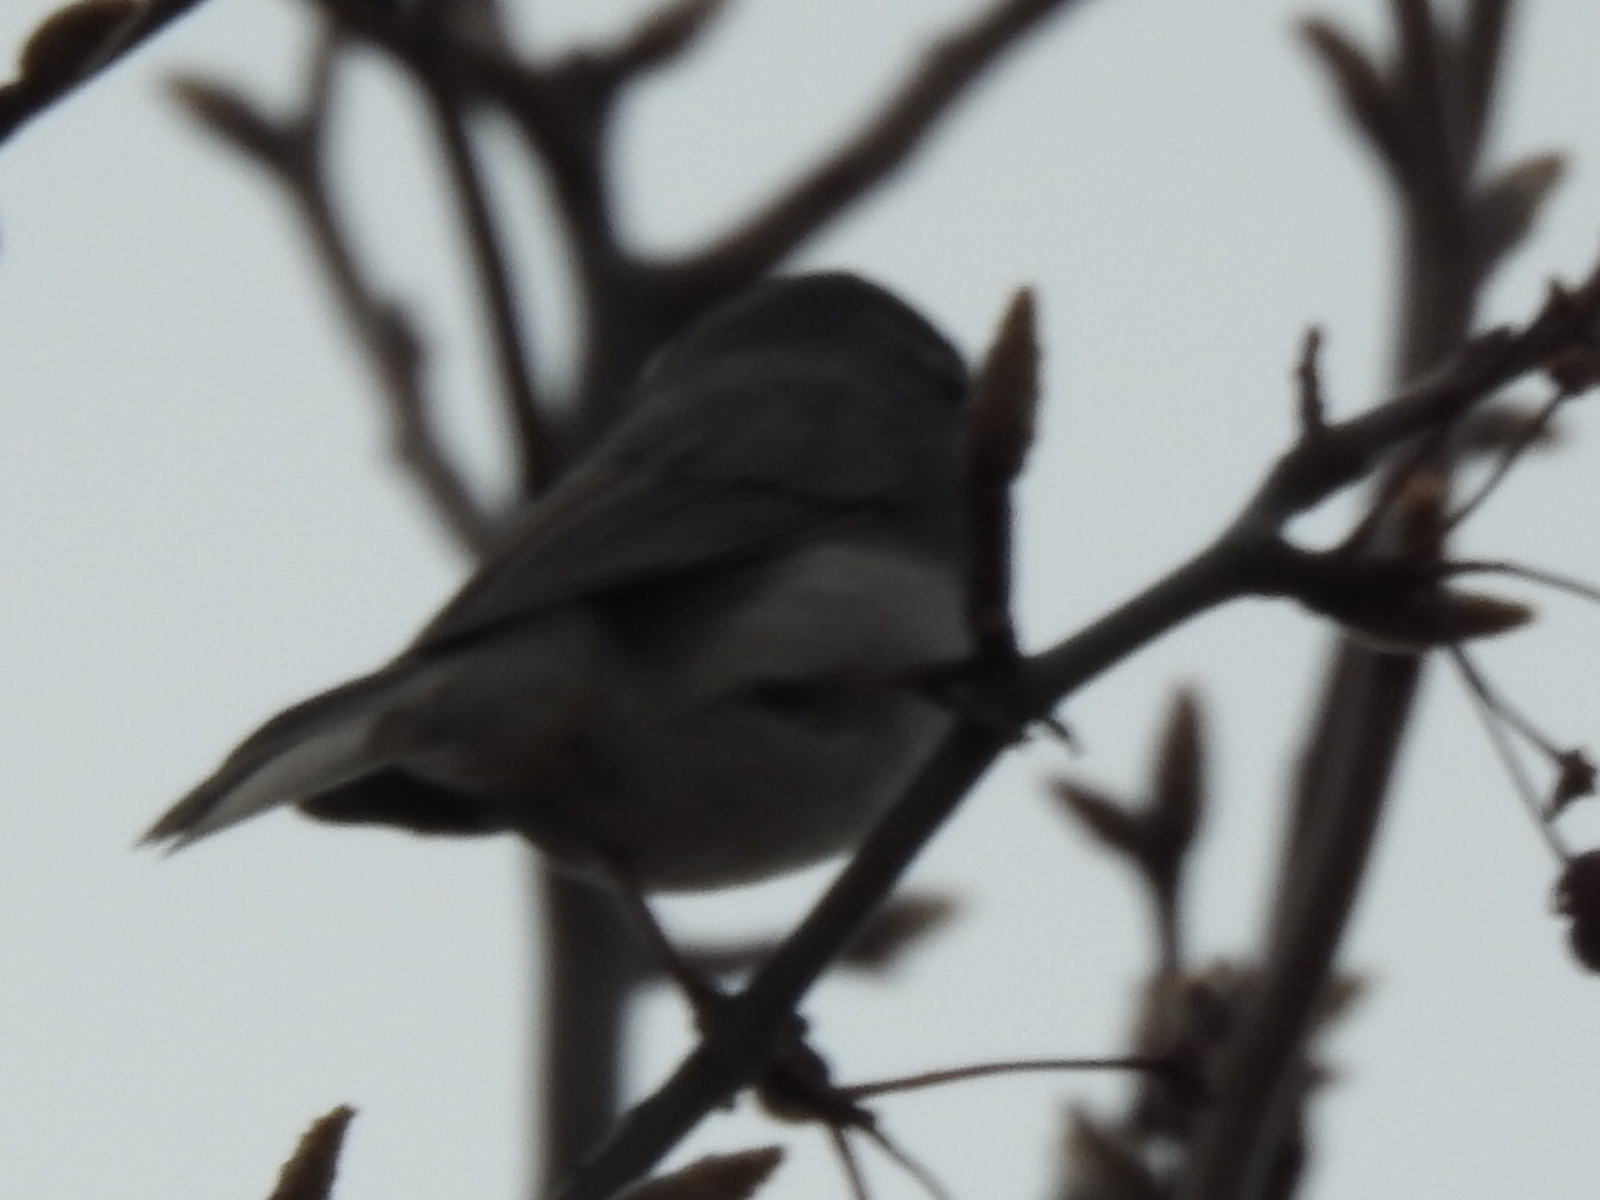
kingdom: Animalia
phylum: Chordata
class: Aves
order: Passeriformes
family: Passerellidae
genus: Junco
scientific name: Junco hyemalis
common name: Dark-eyed junco
